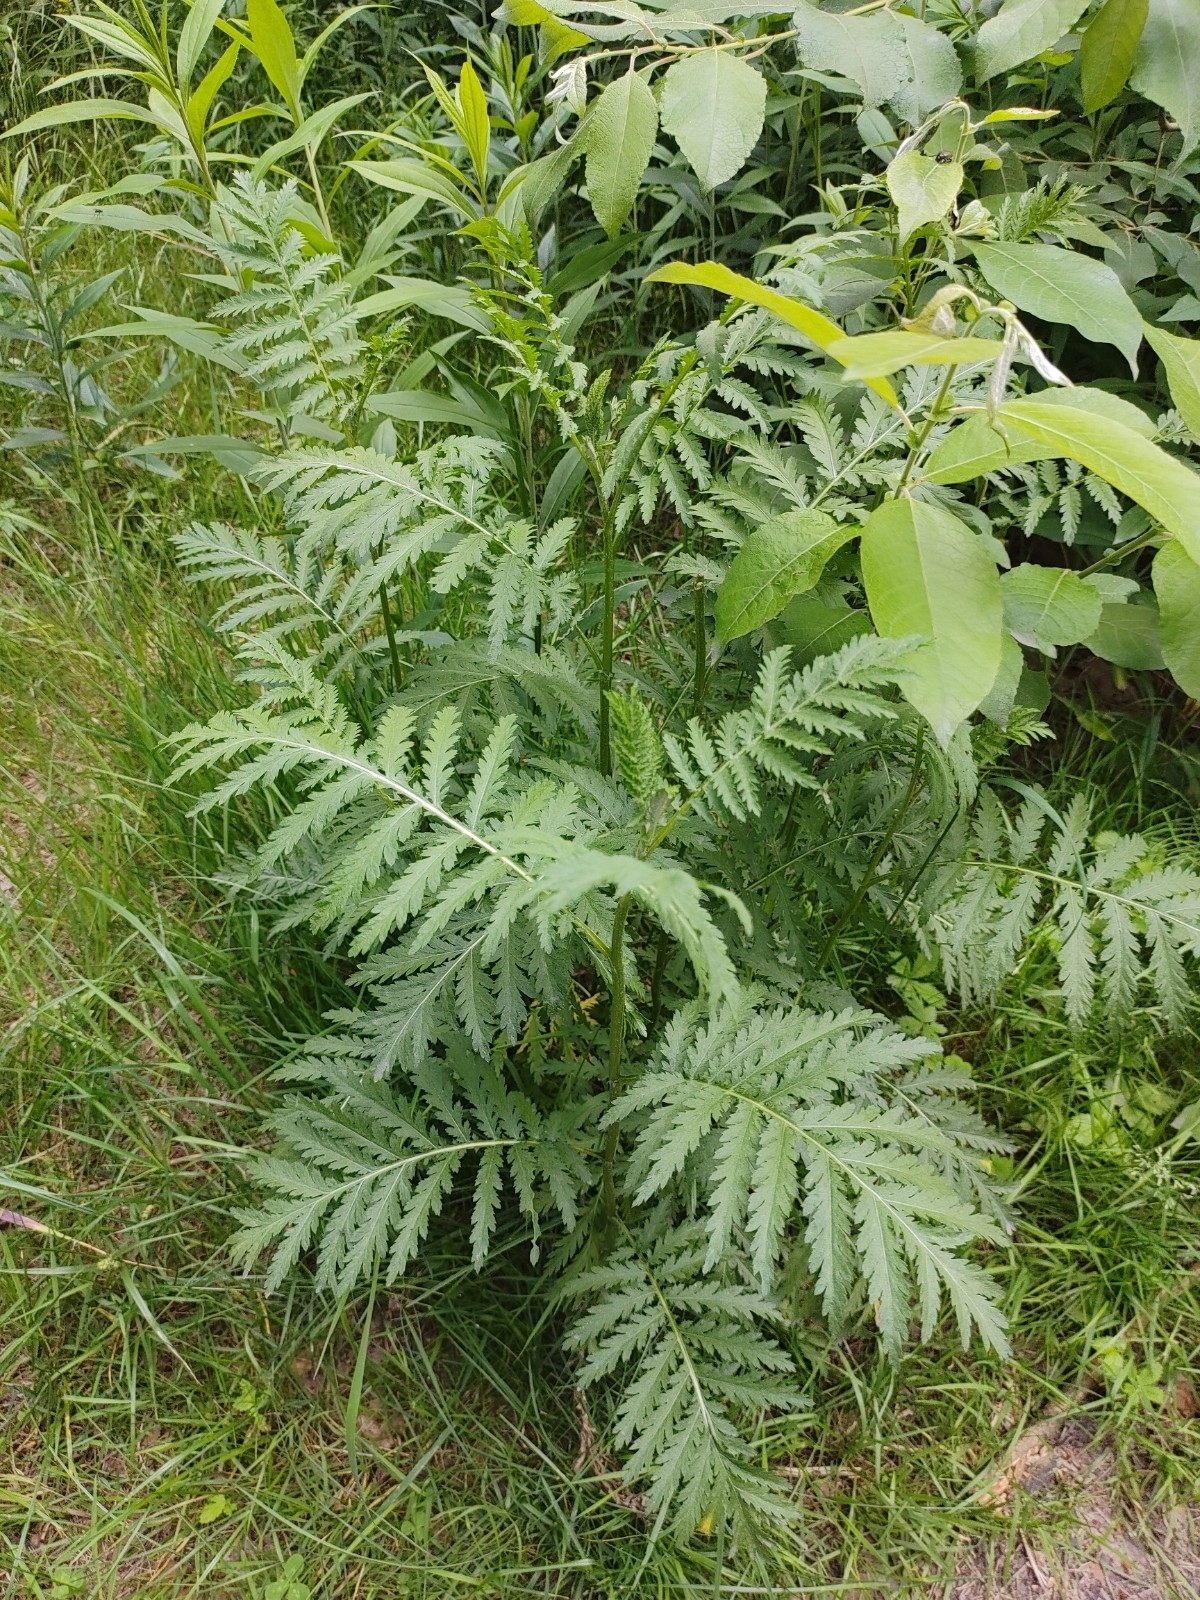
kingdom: Plantae
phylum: Tracheophyta
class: Magnoliopsida
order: Asterales
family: Asteraceae
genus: Tanacetum
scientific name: Tanacetum vulgare
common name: Common tansy
